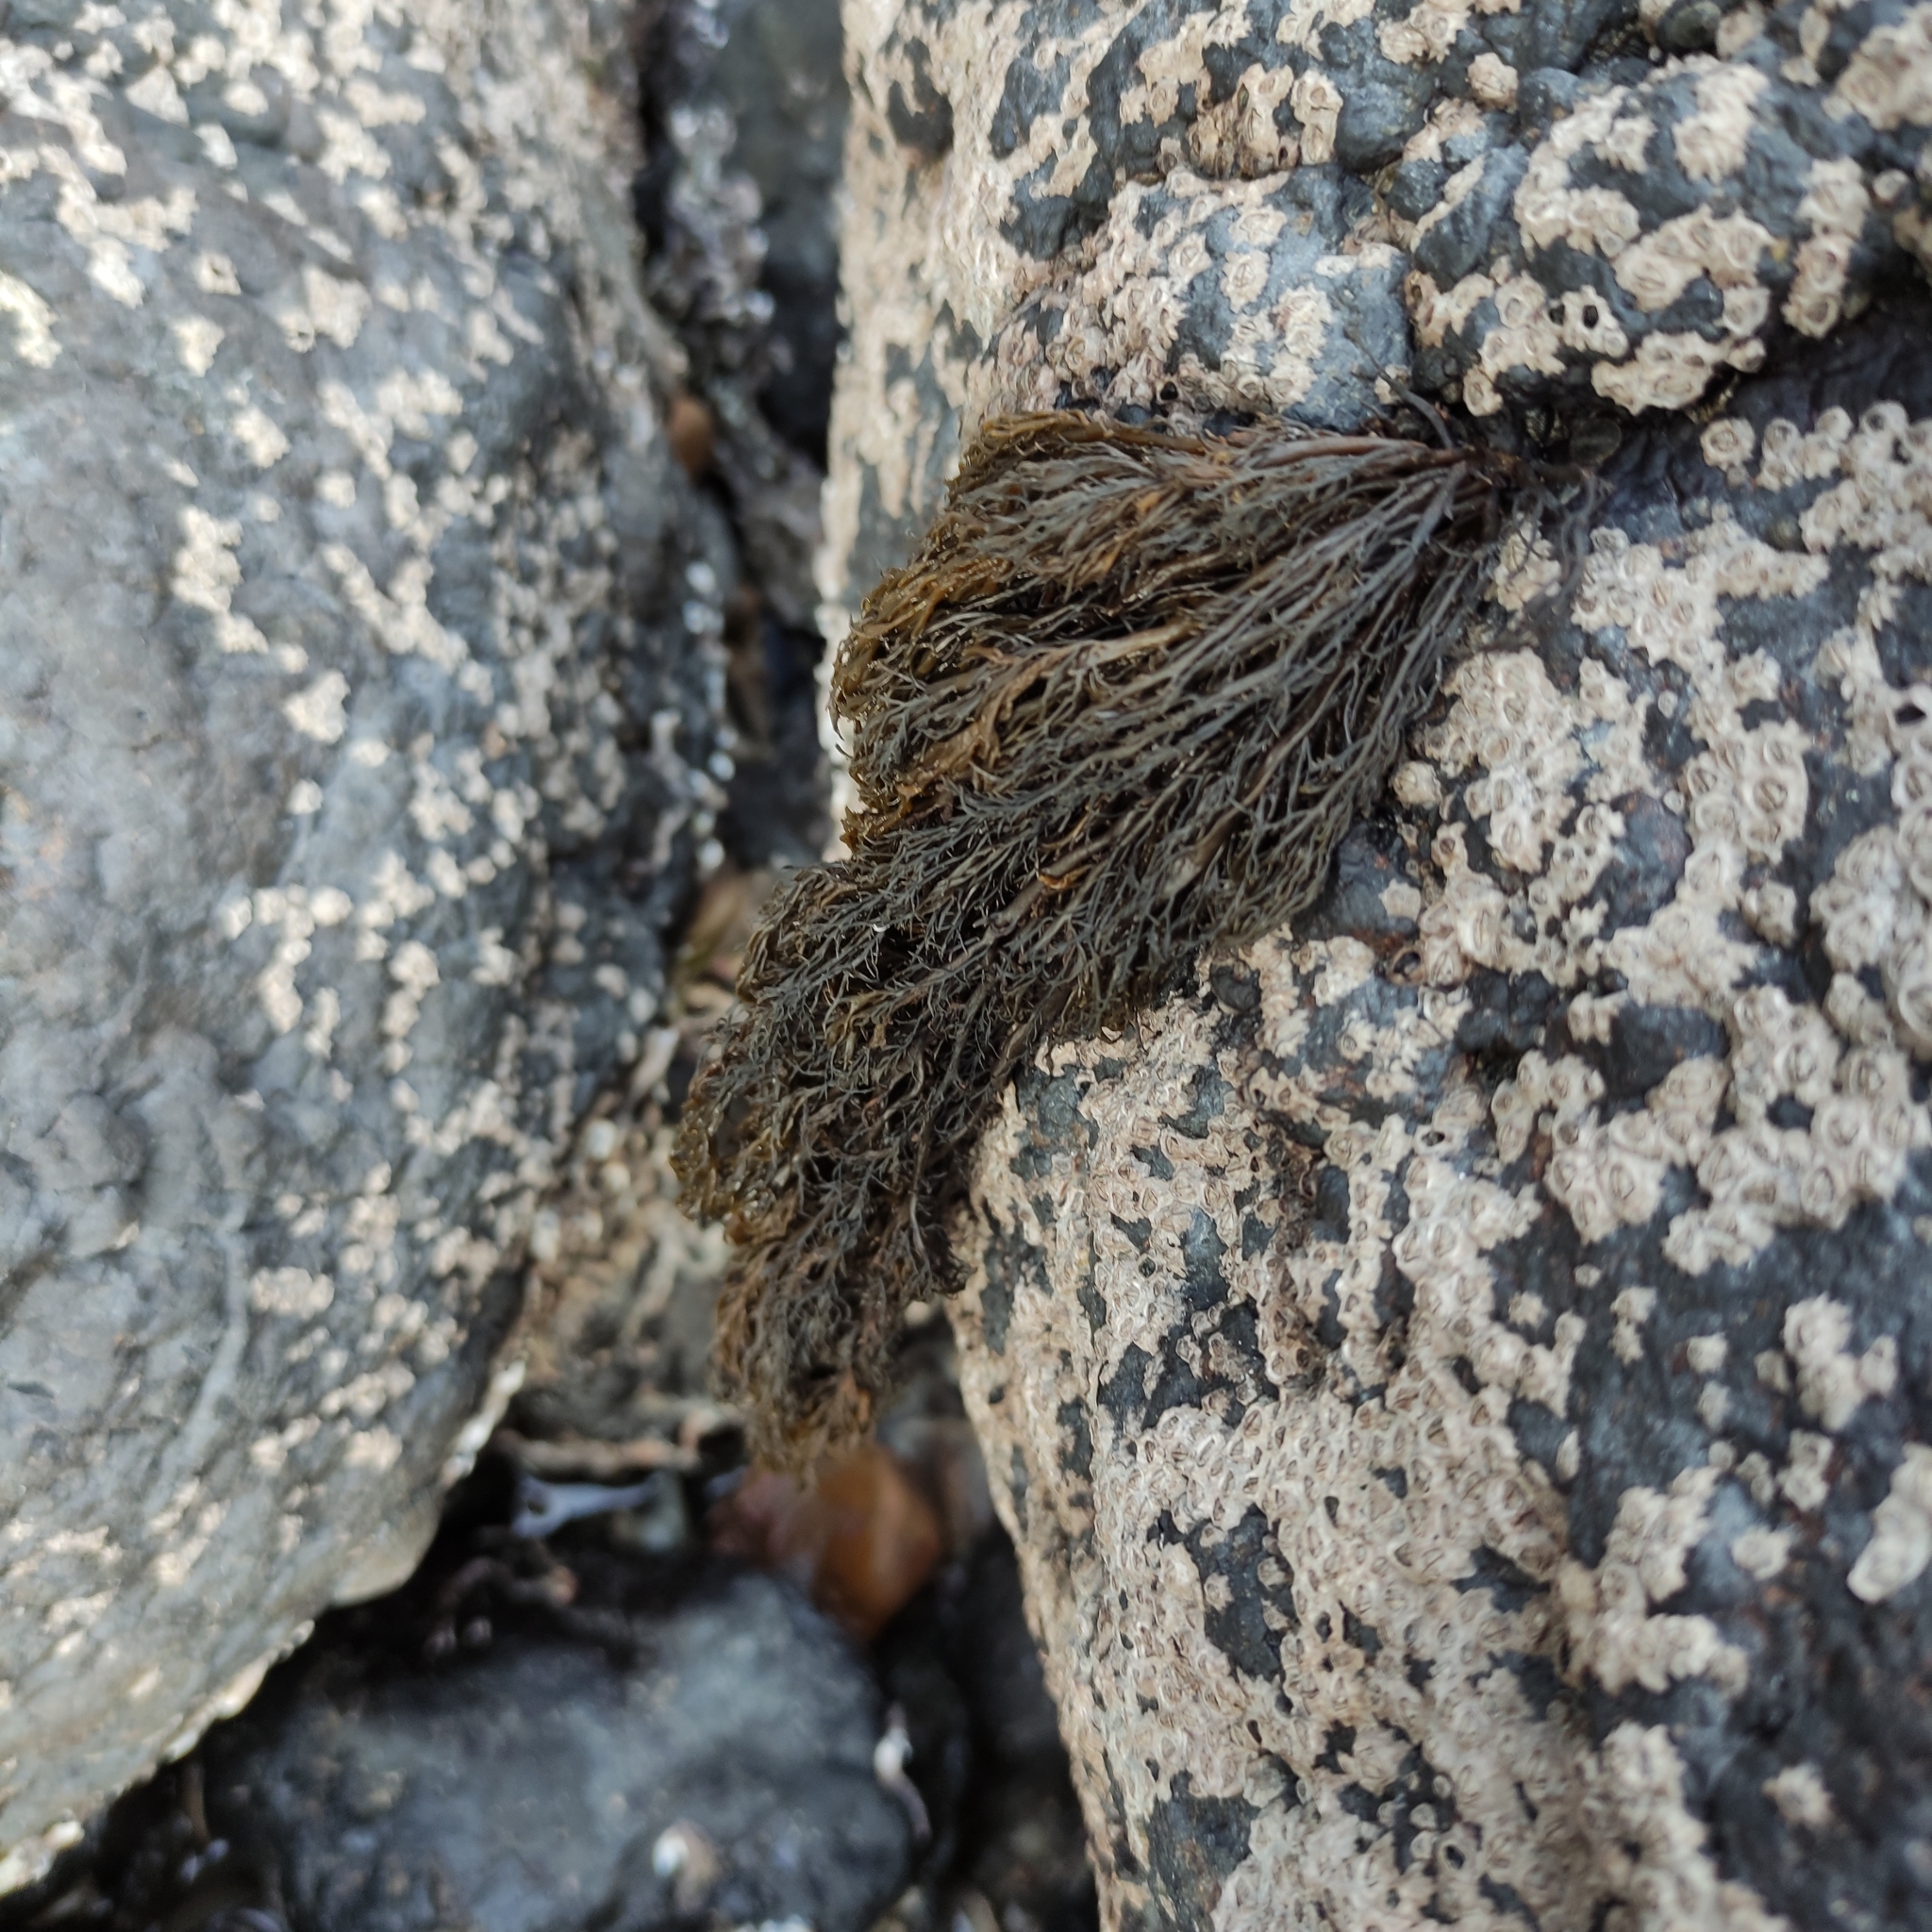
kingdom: Chromista
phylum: Ochrophyta
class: Phaeophyceae
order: Scytothamnales
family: Scytothamnaceae
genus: Scytothamnus
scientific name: Scytothamnus australis
